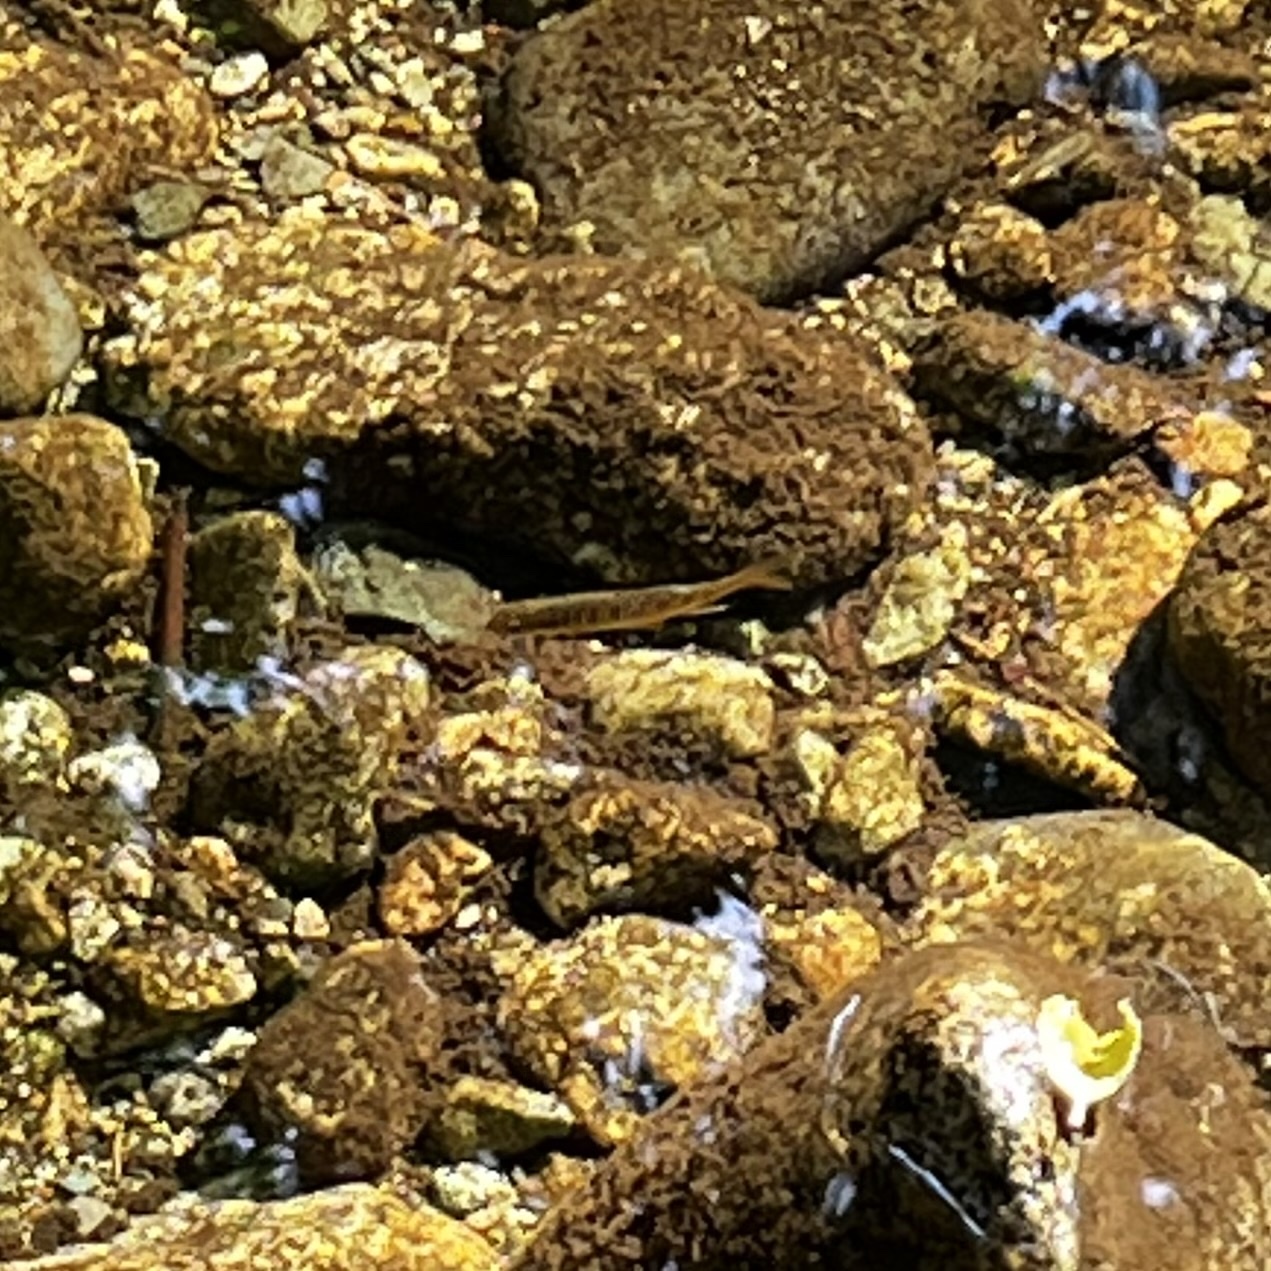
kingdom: Animalia
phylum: Chordata
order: Salmoniformes
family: Salmonidae
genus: Oncorhynchus
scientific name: Oncorhynchus kisutch
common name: Coho salmon
